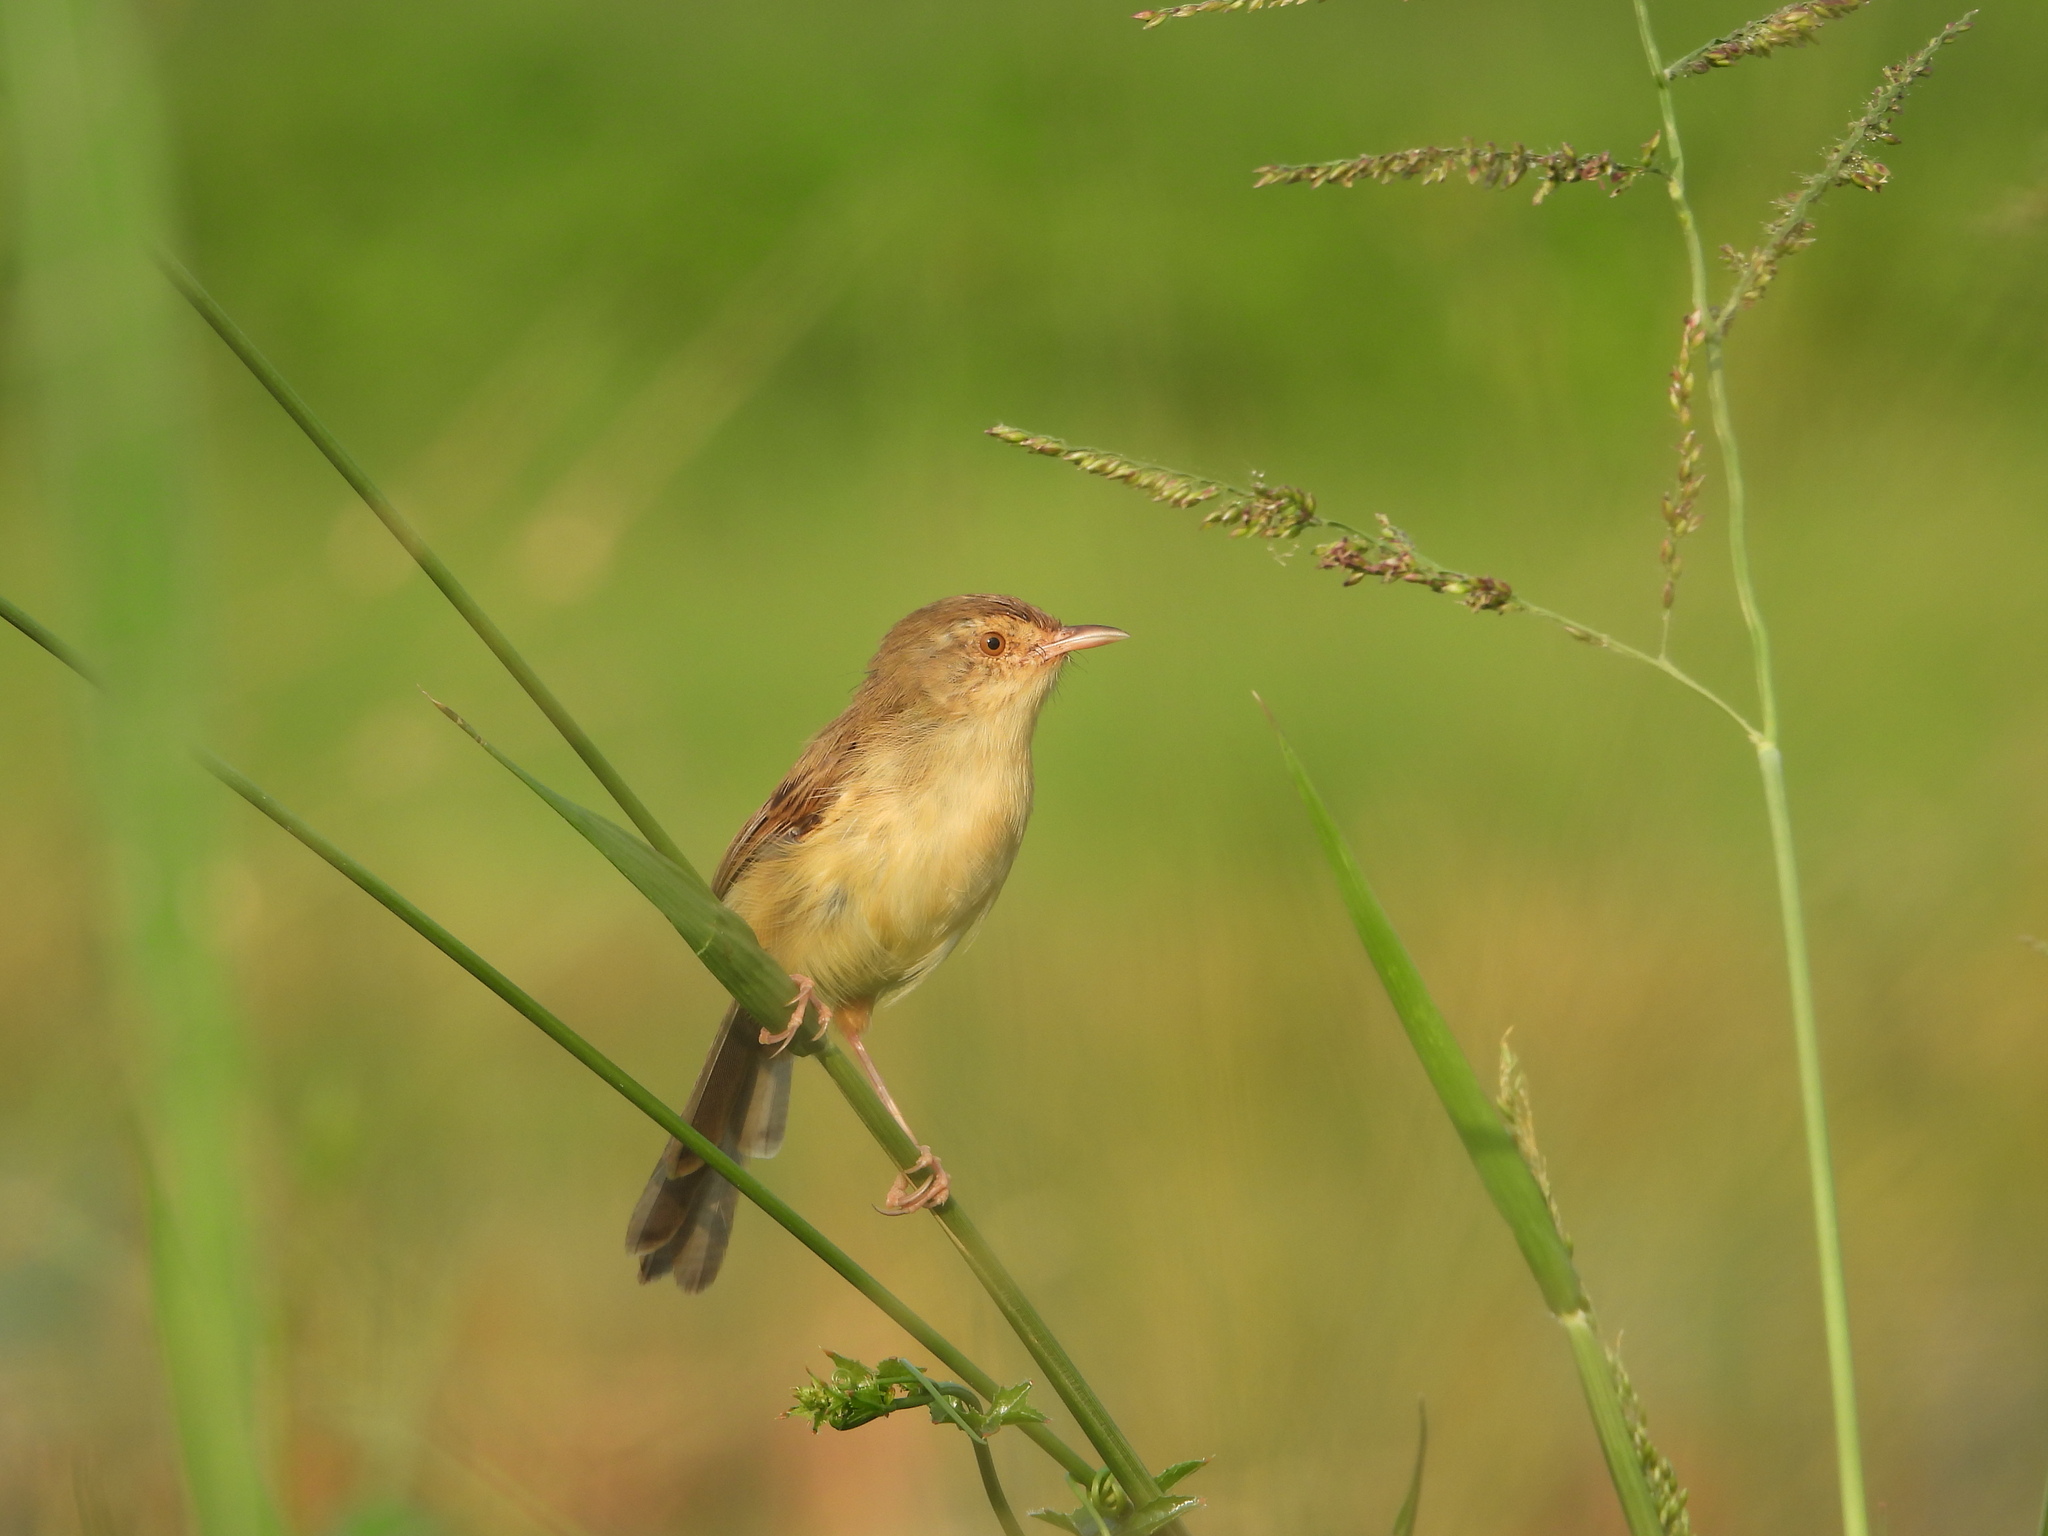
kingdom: Animalia
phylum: Chordata
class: Aves
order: Passeriformes
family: Cisticolidae
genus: Prinia
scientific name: Prinia inornata
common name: Plain prinia
